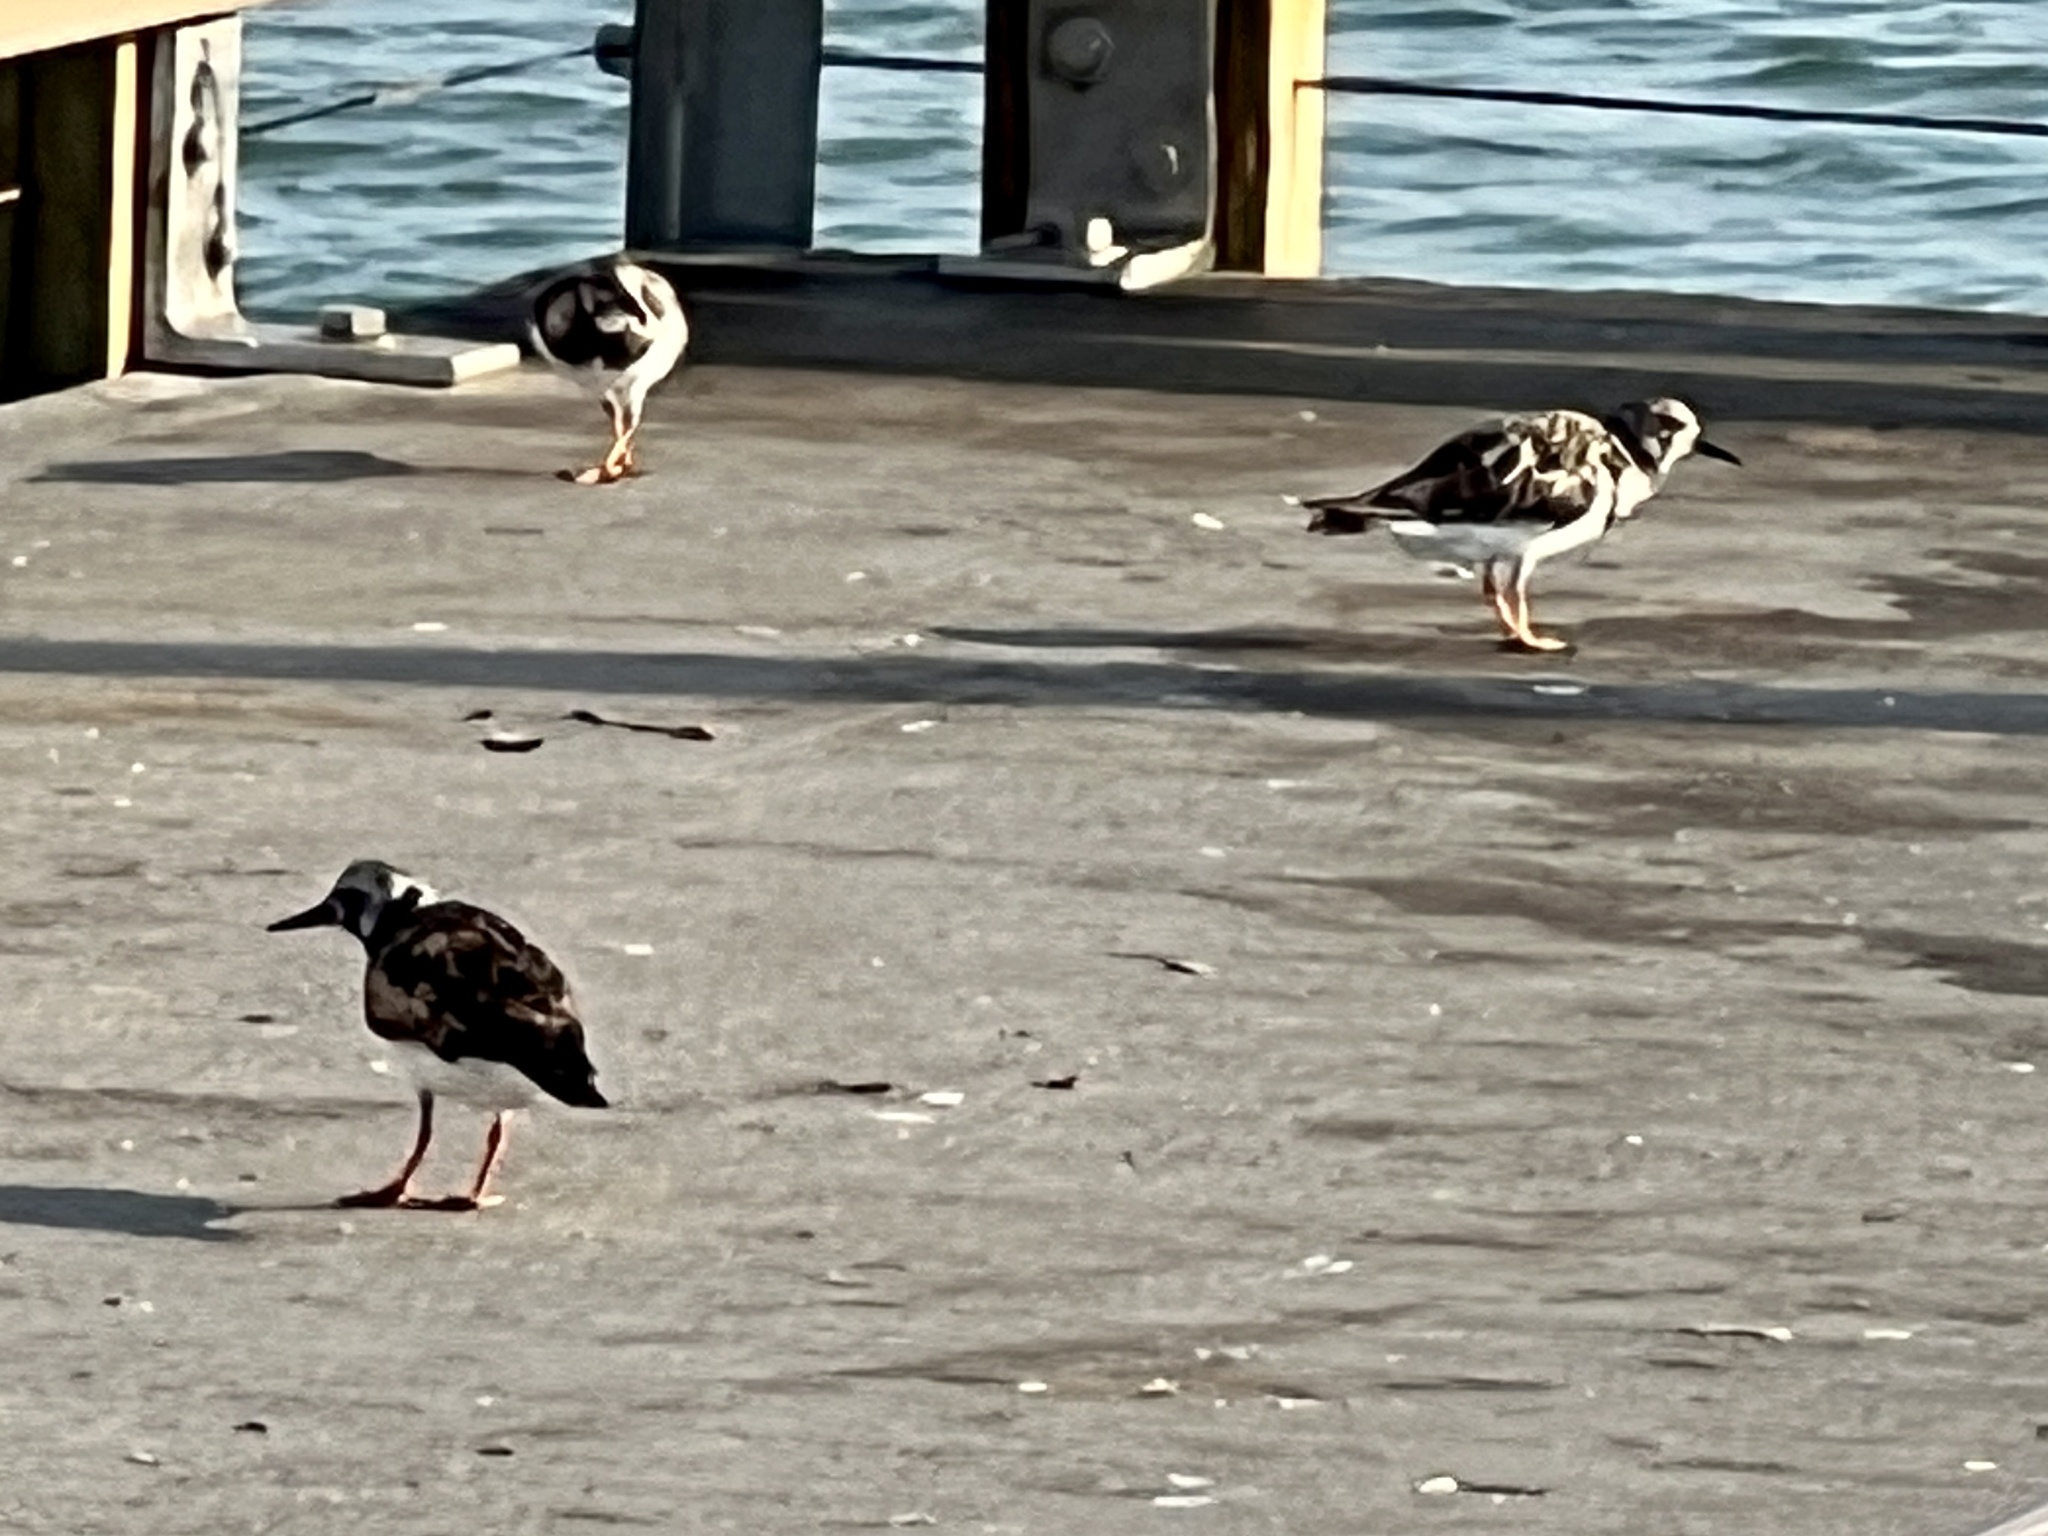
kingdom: Animalia
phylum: Chordata
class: Aves
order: Charadriiformes
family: Scolopacidae
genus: Arenaria
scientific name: Arenaria interpres
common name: Ruddy turnstone
